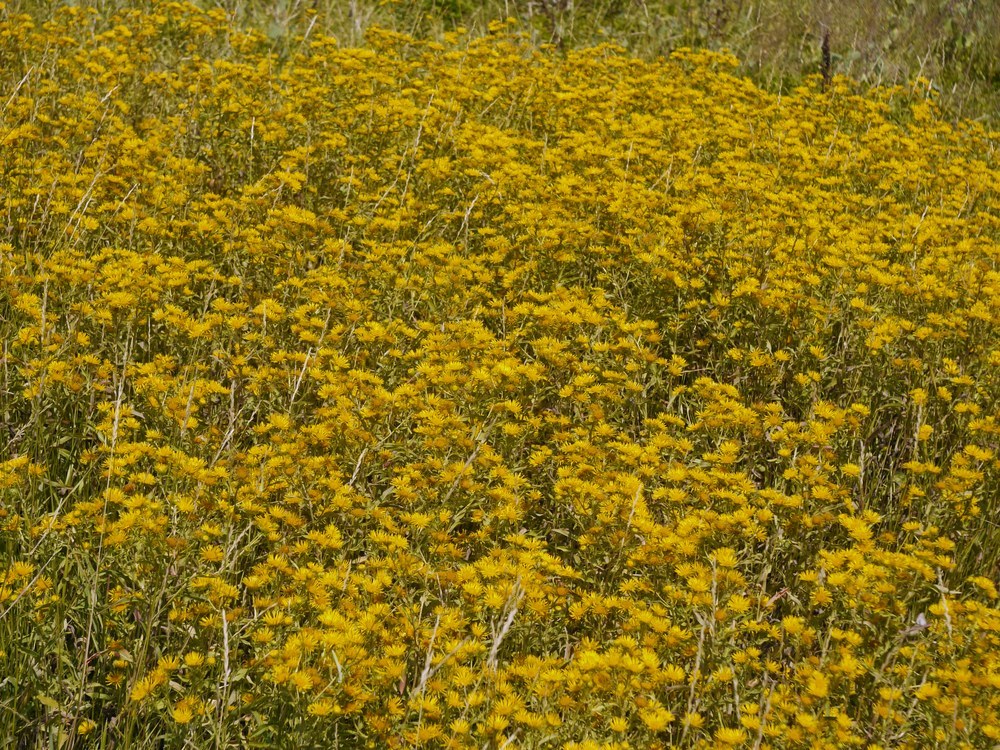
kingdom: Plantae
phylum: Tracheophyta
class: Magnoliopsida
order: Asterales
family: Asteraceae
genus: Pentanema
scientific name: Pentanema britannicum
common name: British elecampane
